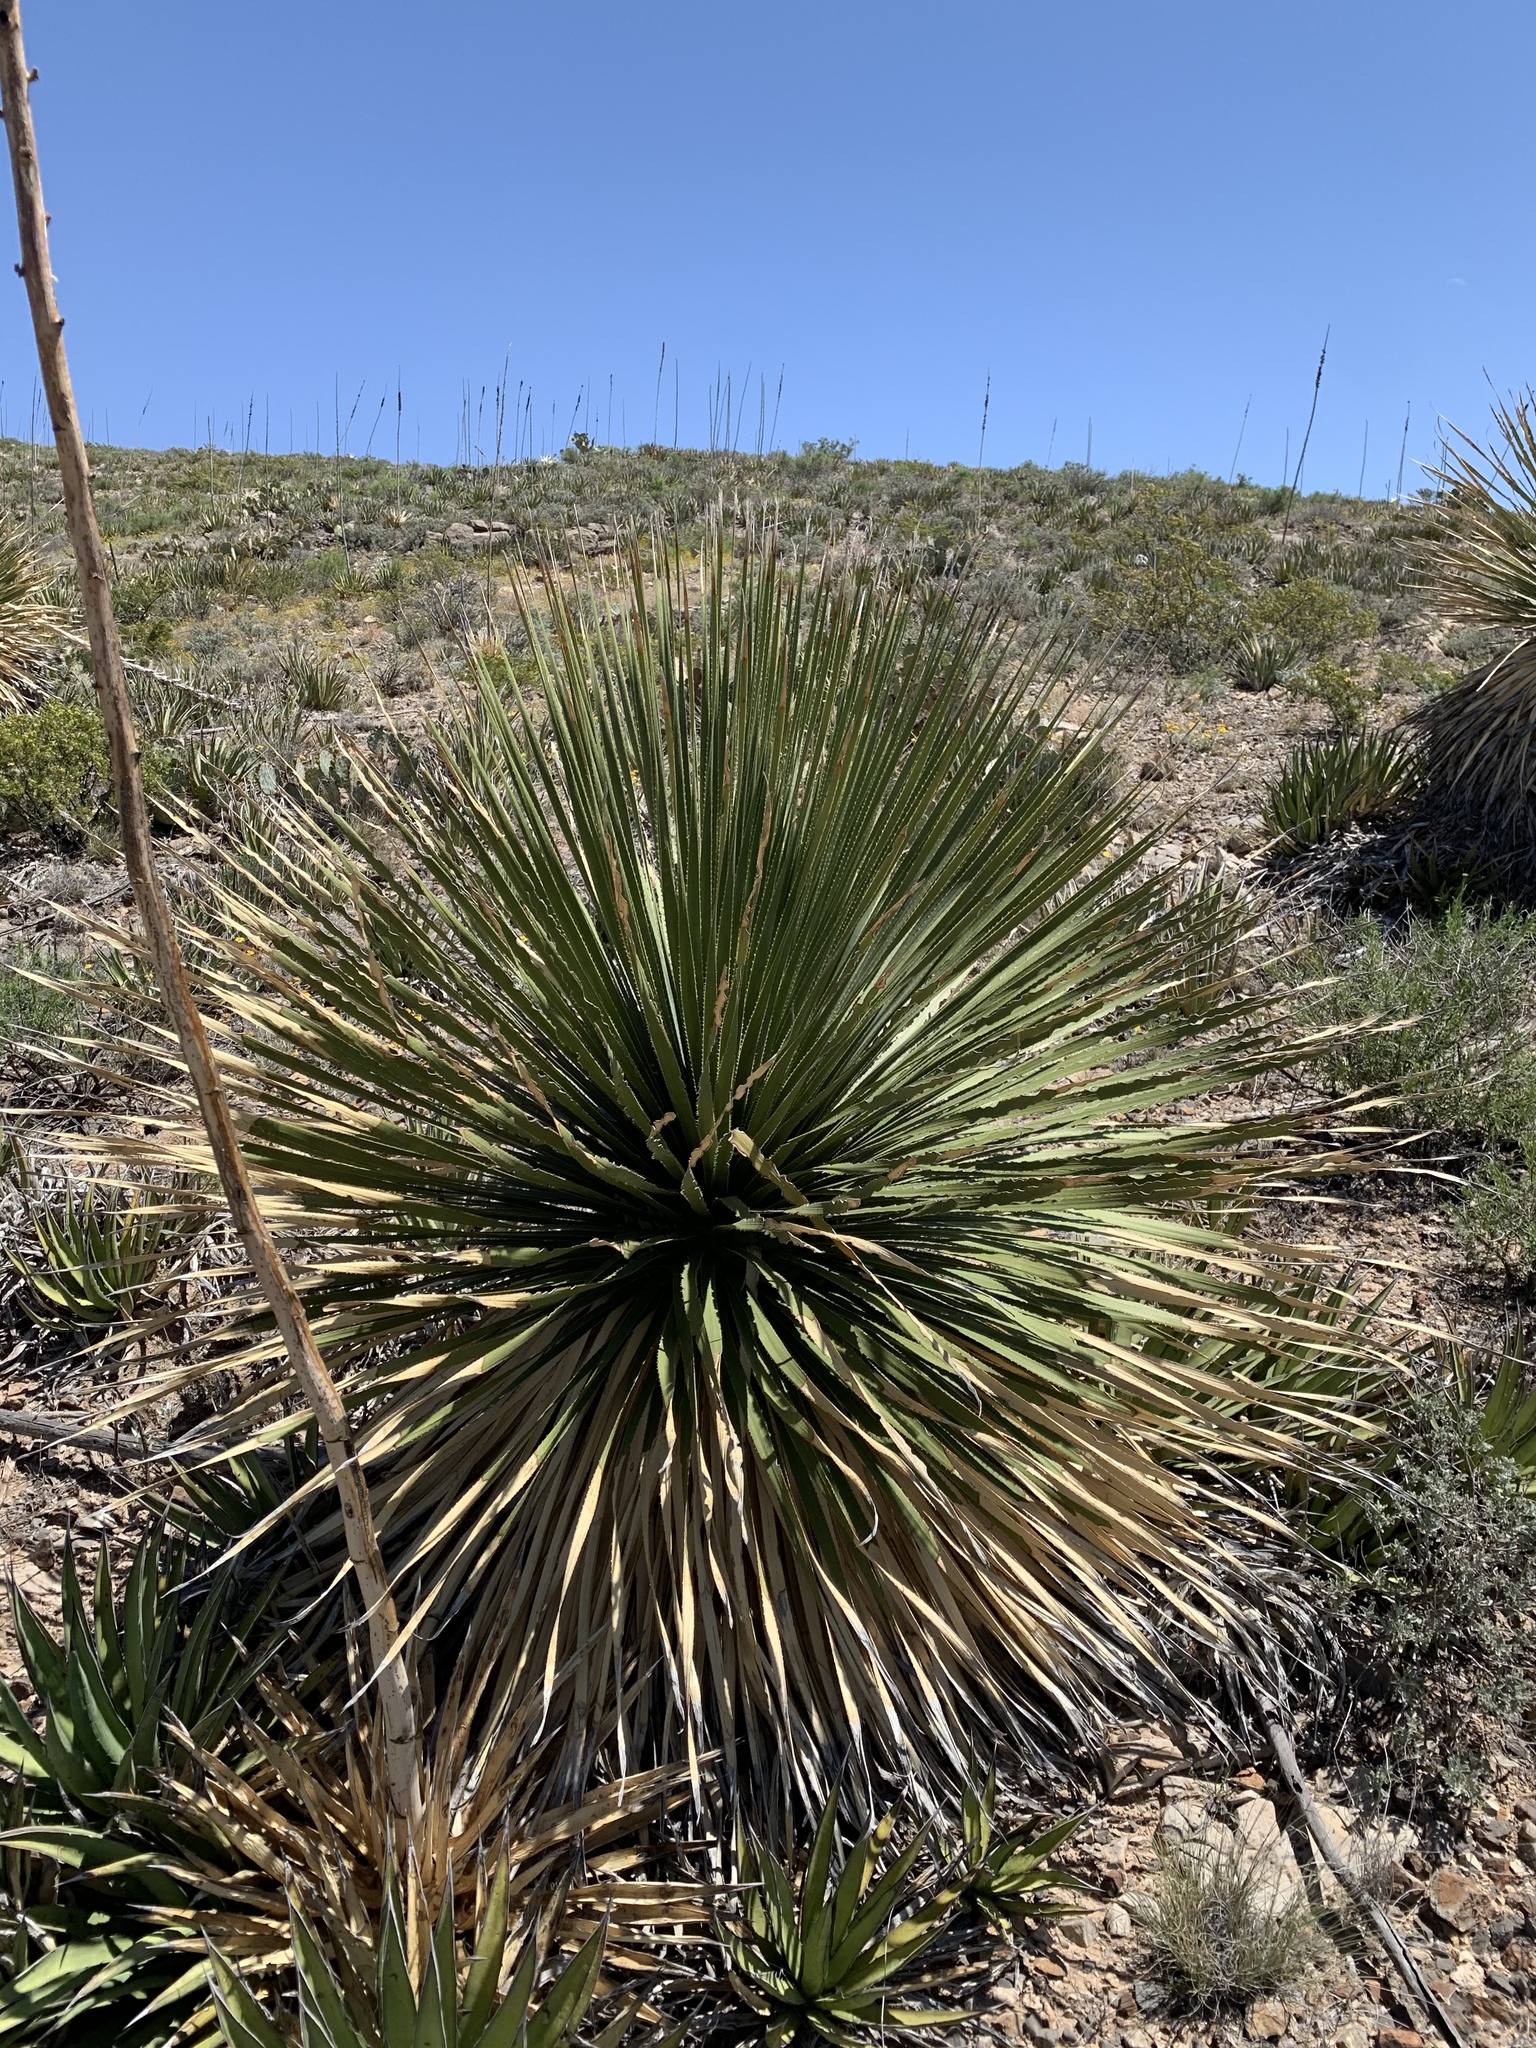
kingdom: Plantae
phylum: Tracheophyta
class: Liliopsida
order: Asparagales
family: Asparagaceae
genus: Dasylirion
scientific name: Dasylirion wheeleri
